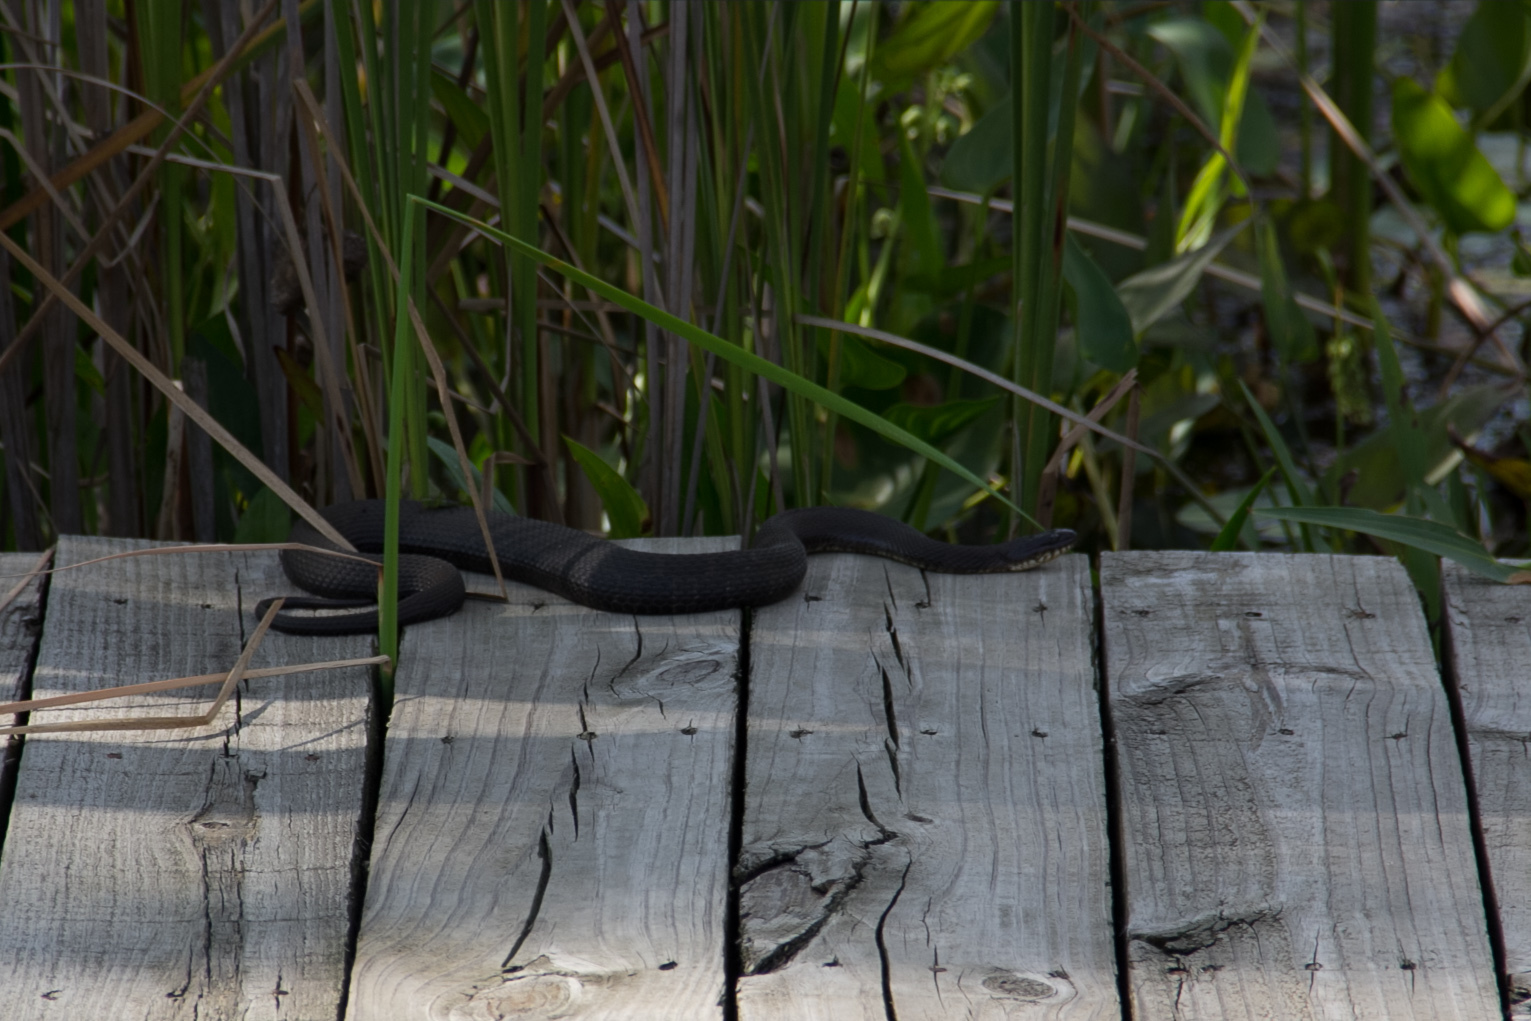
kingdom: Animalia
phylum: Chordata
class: Squamata
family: Colubridae
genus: Nerodia
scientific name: Nerodia sipedon
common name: Northern water snake
